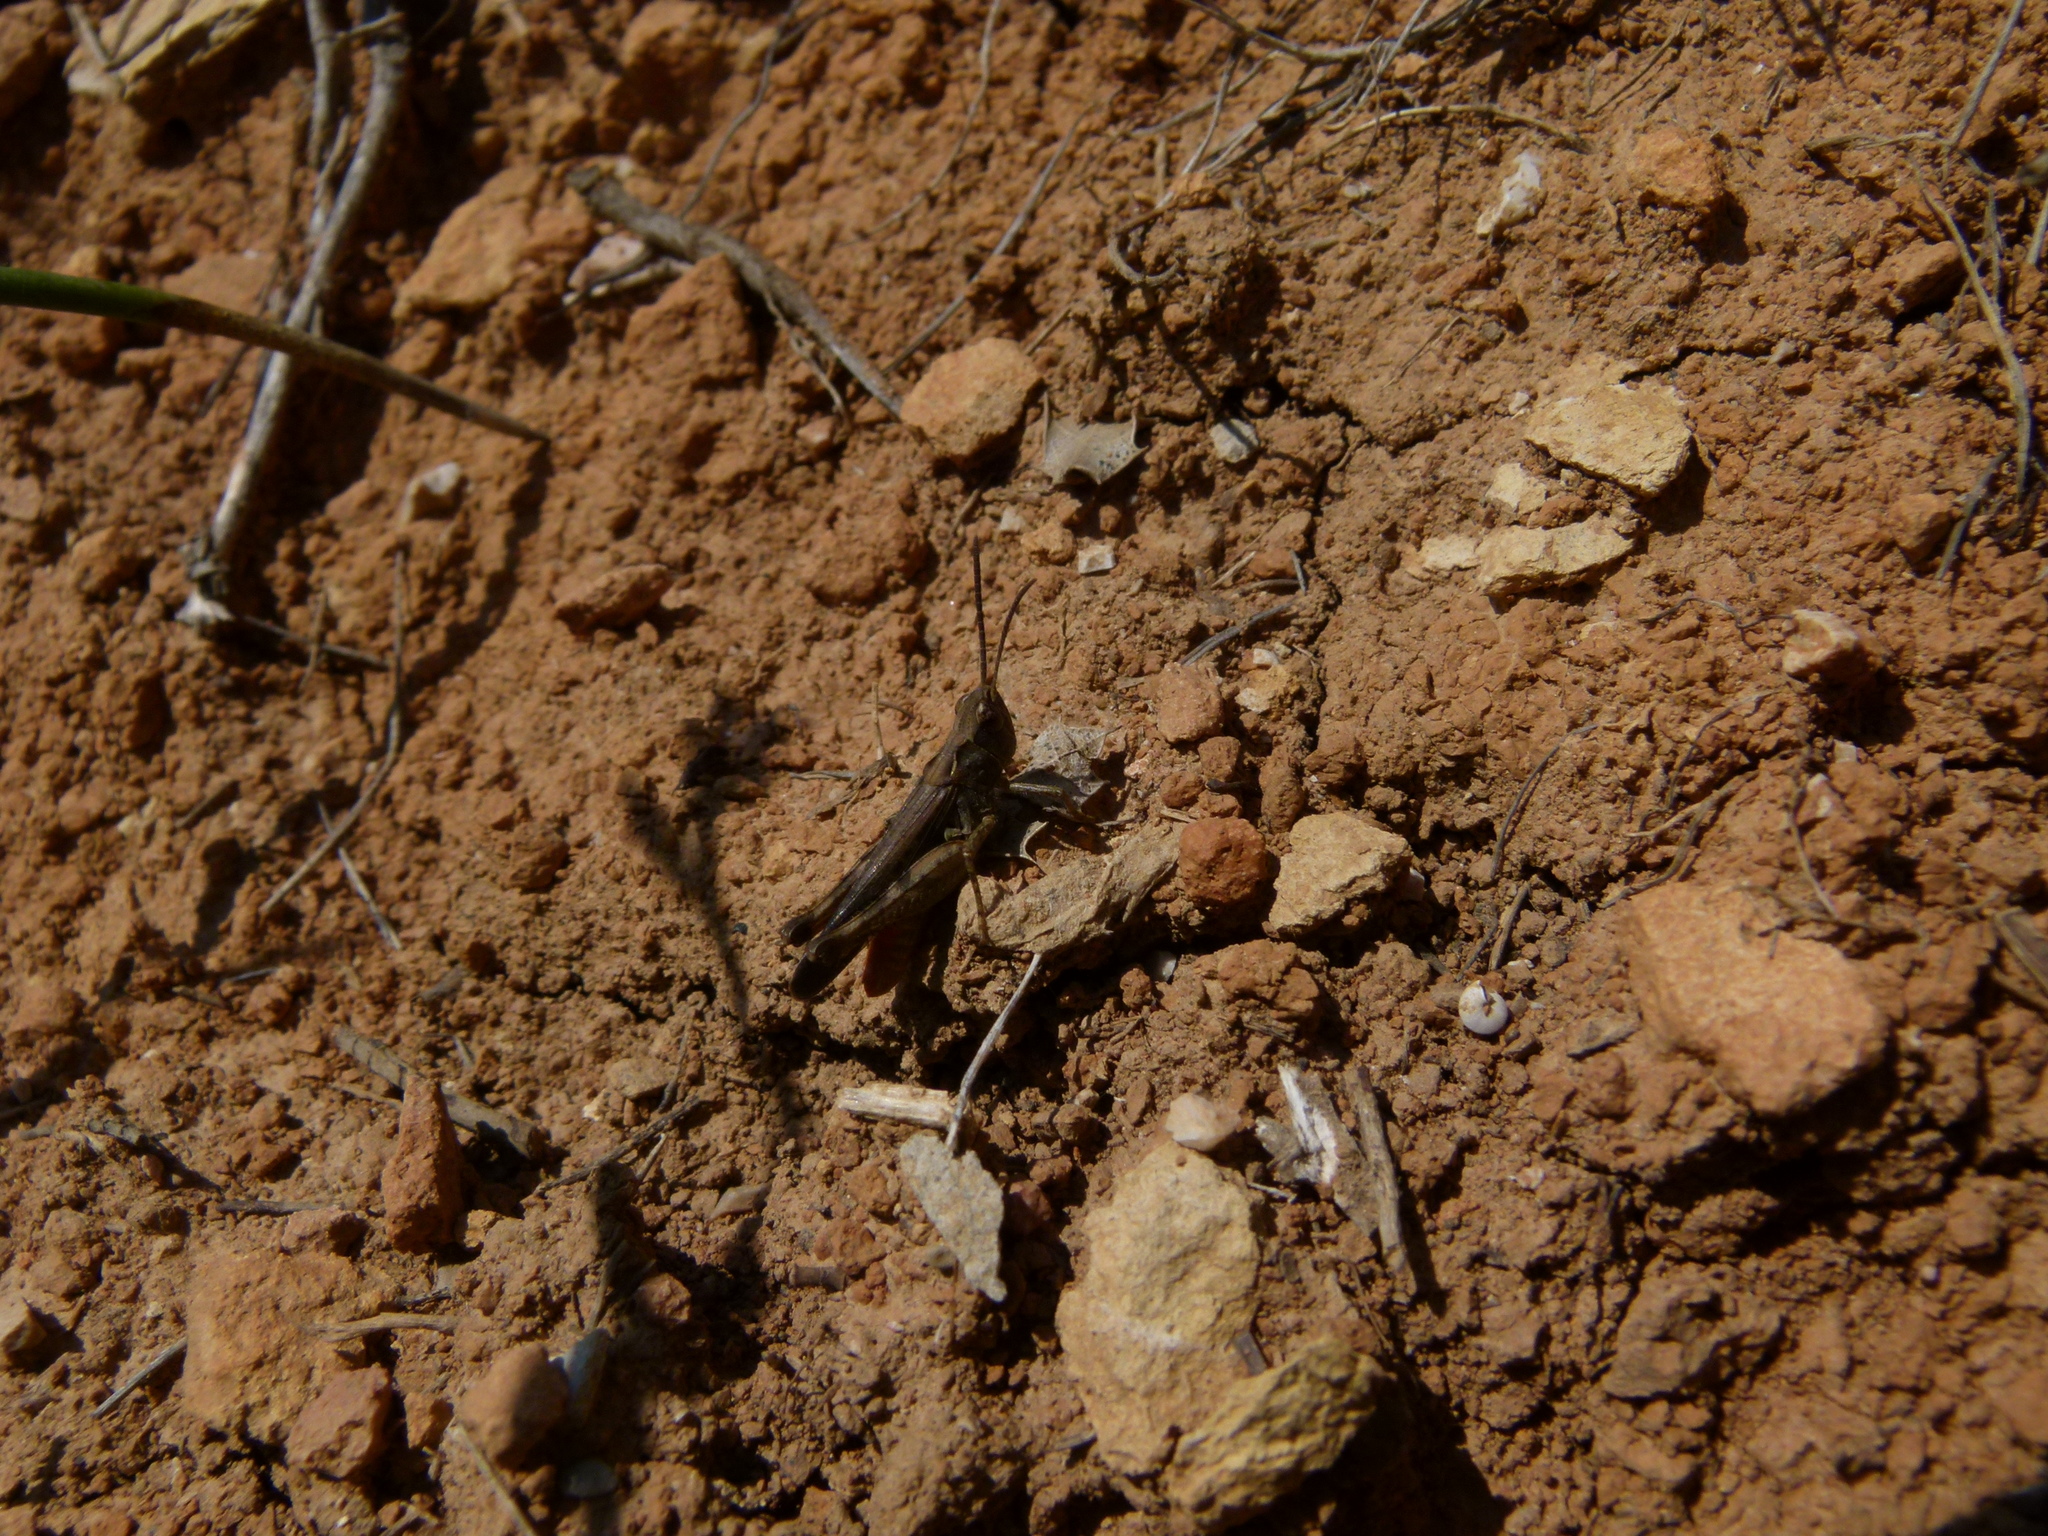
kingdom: Animalia
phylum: Arthropoda
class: Insecta
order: Orthoptera
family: Acrididae
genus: Omocestus
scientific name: Omocestus raymondi
